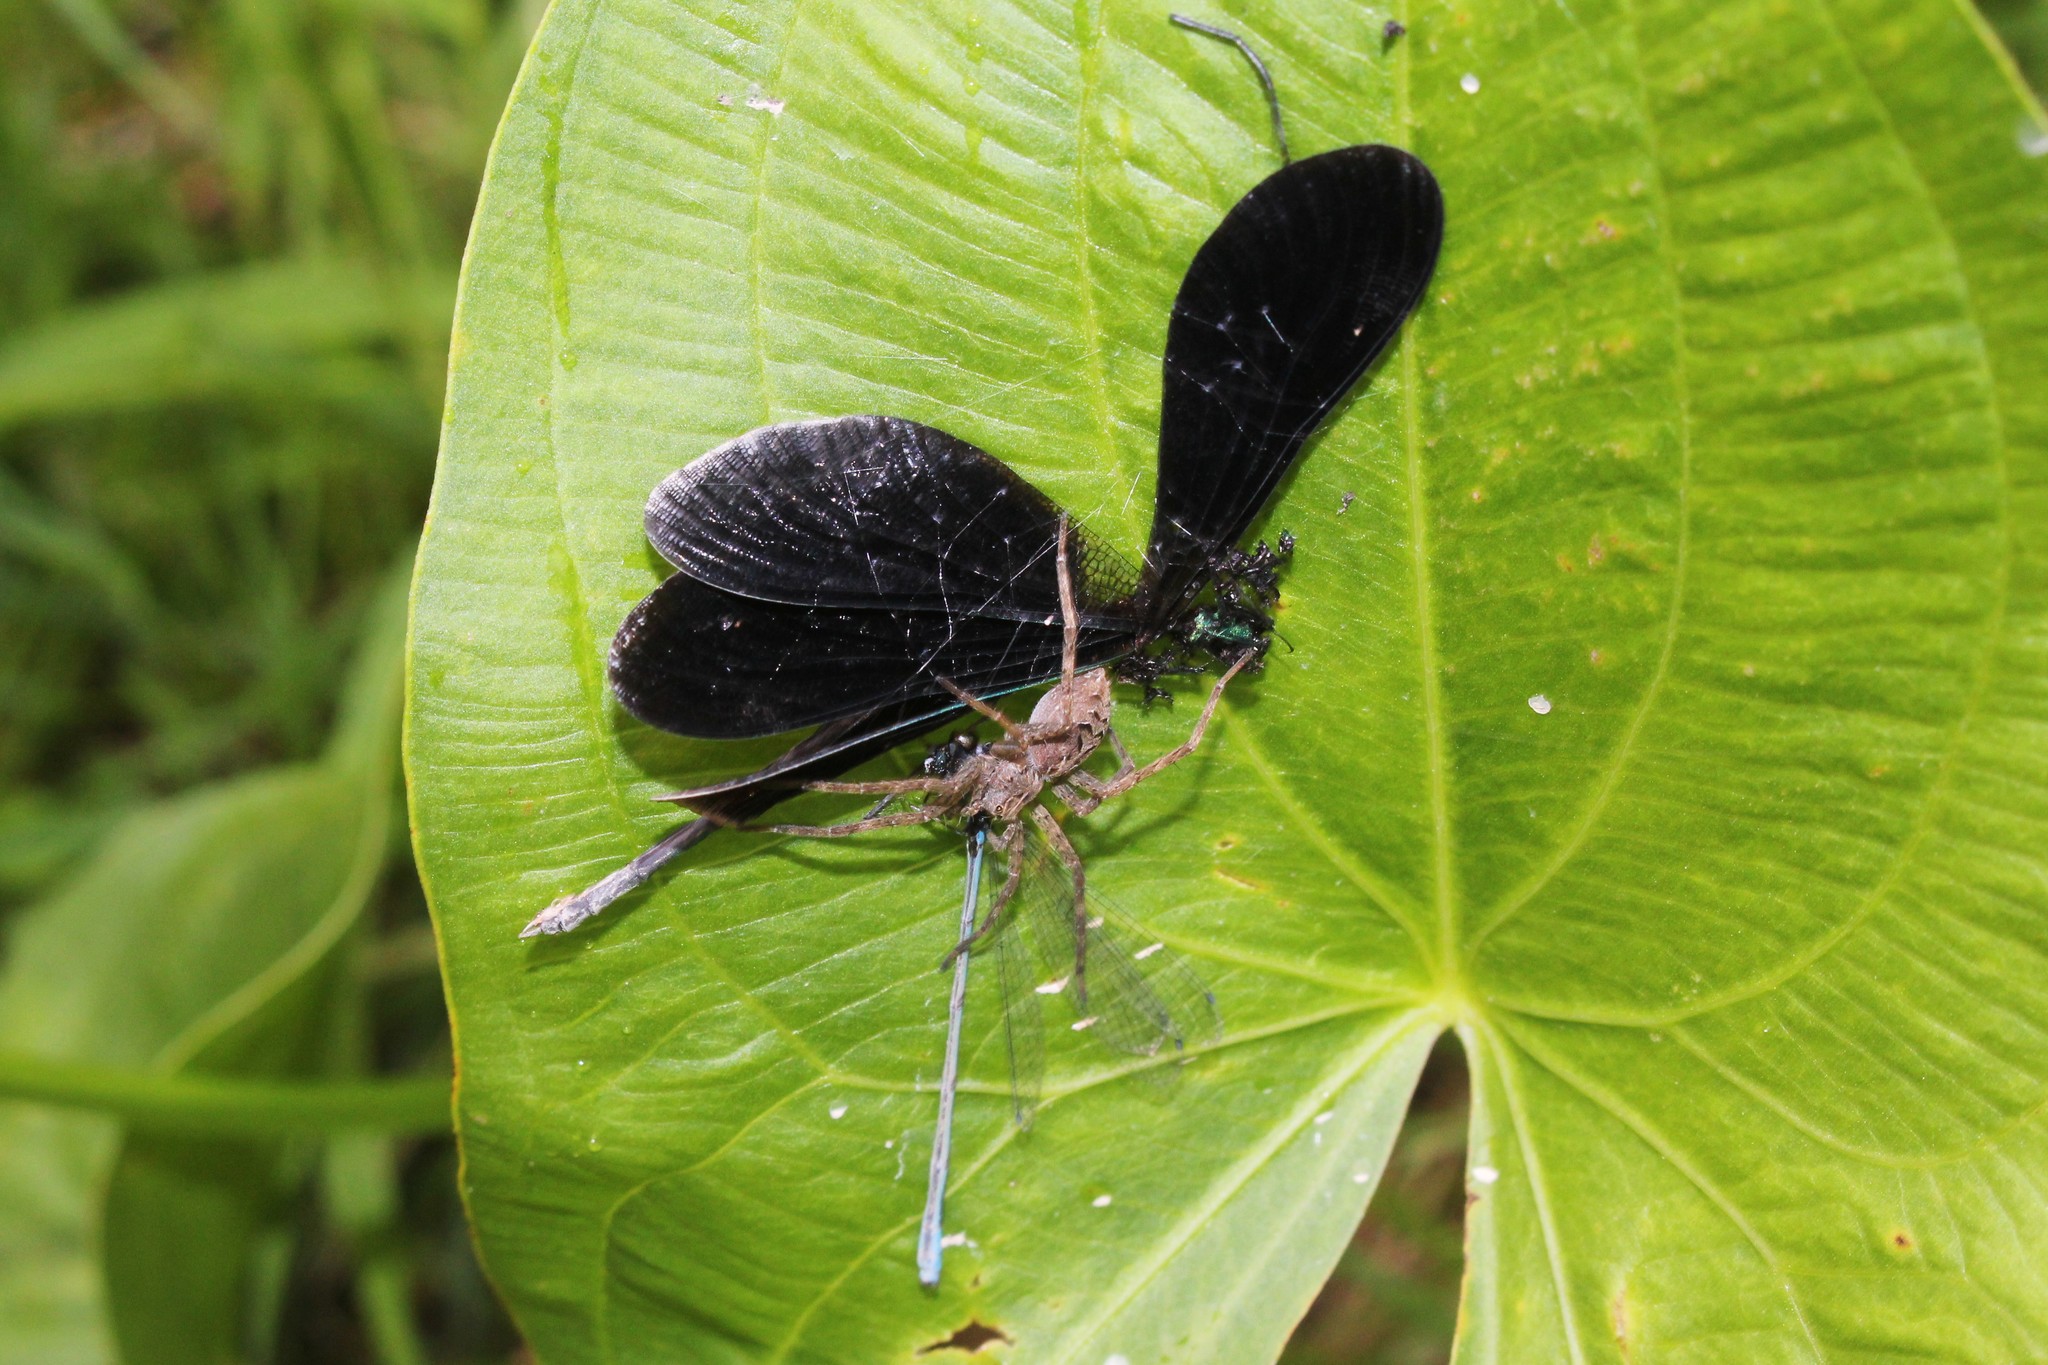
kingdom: Animalia
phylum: Arthropoda
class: Insecta
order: Odonata
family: Coenagrionidae
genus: Enallagma
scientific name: Enallagma exsulans
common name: Stream bluet
